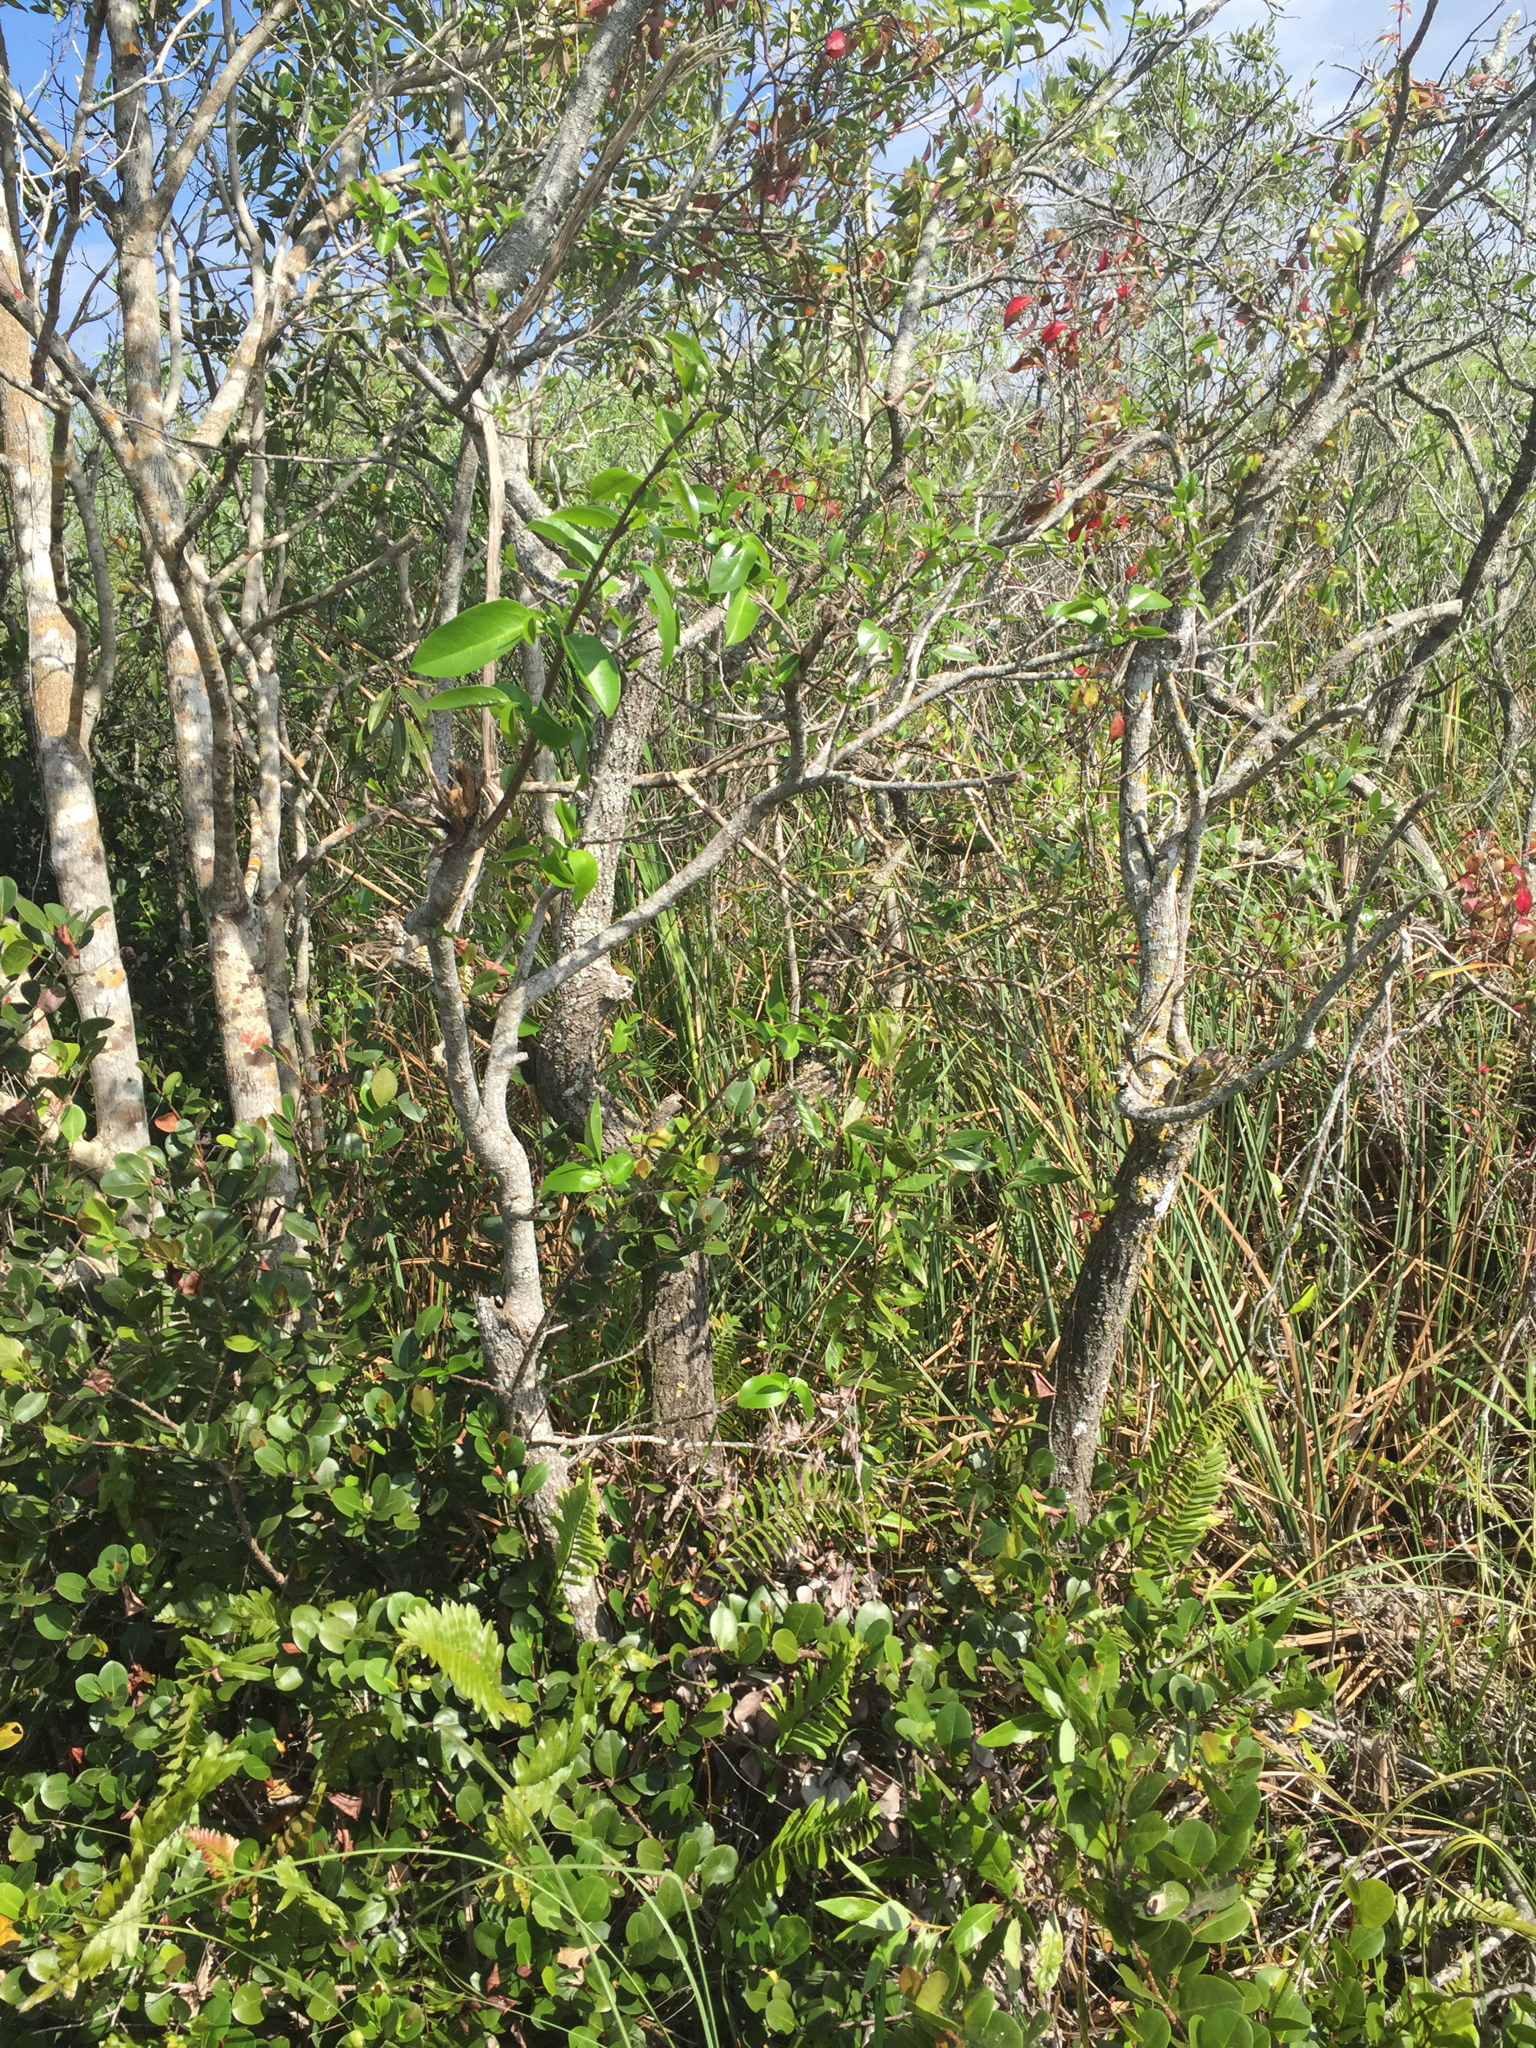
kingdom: Plantae
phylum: Tracheophyta
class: Magnoliopsida
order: Magnoliales
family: Annonaceae
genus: Annona
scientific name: Annona glabra
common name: Monkey apple
